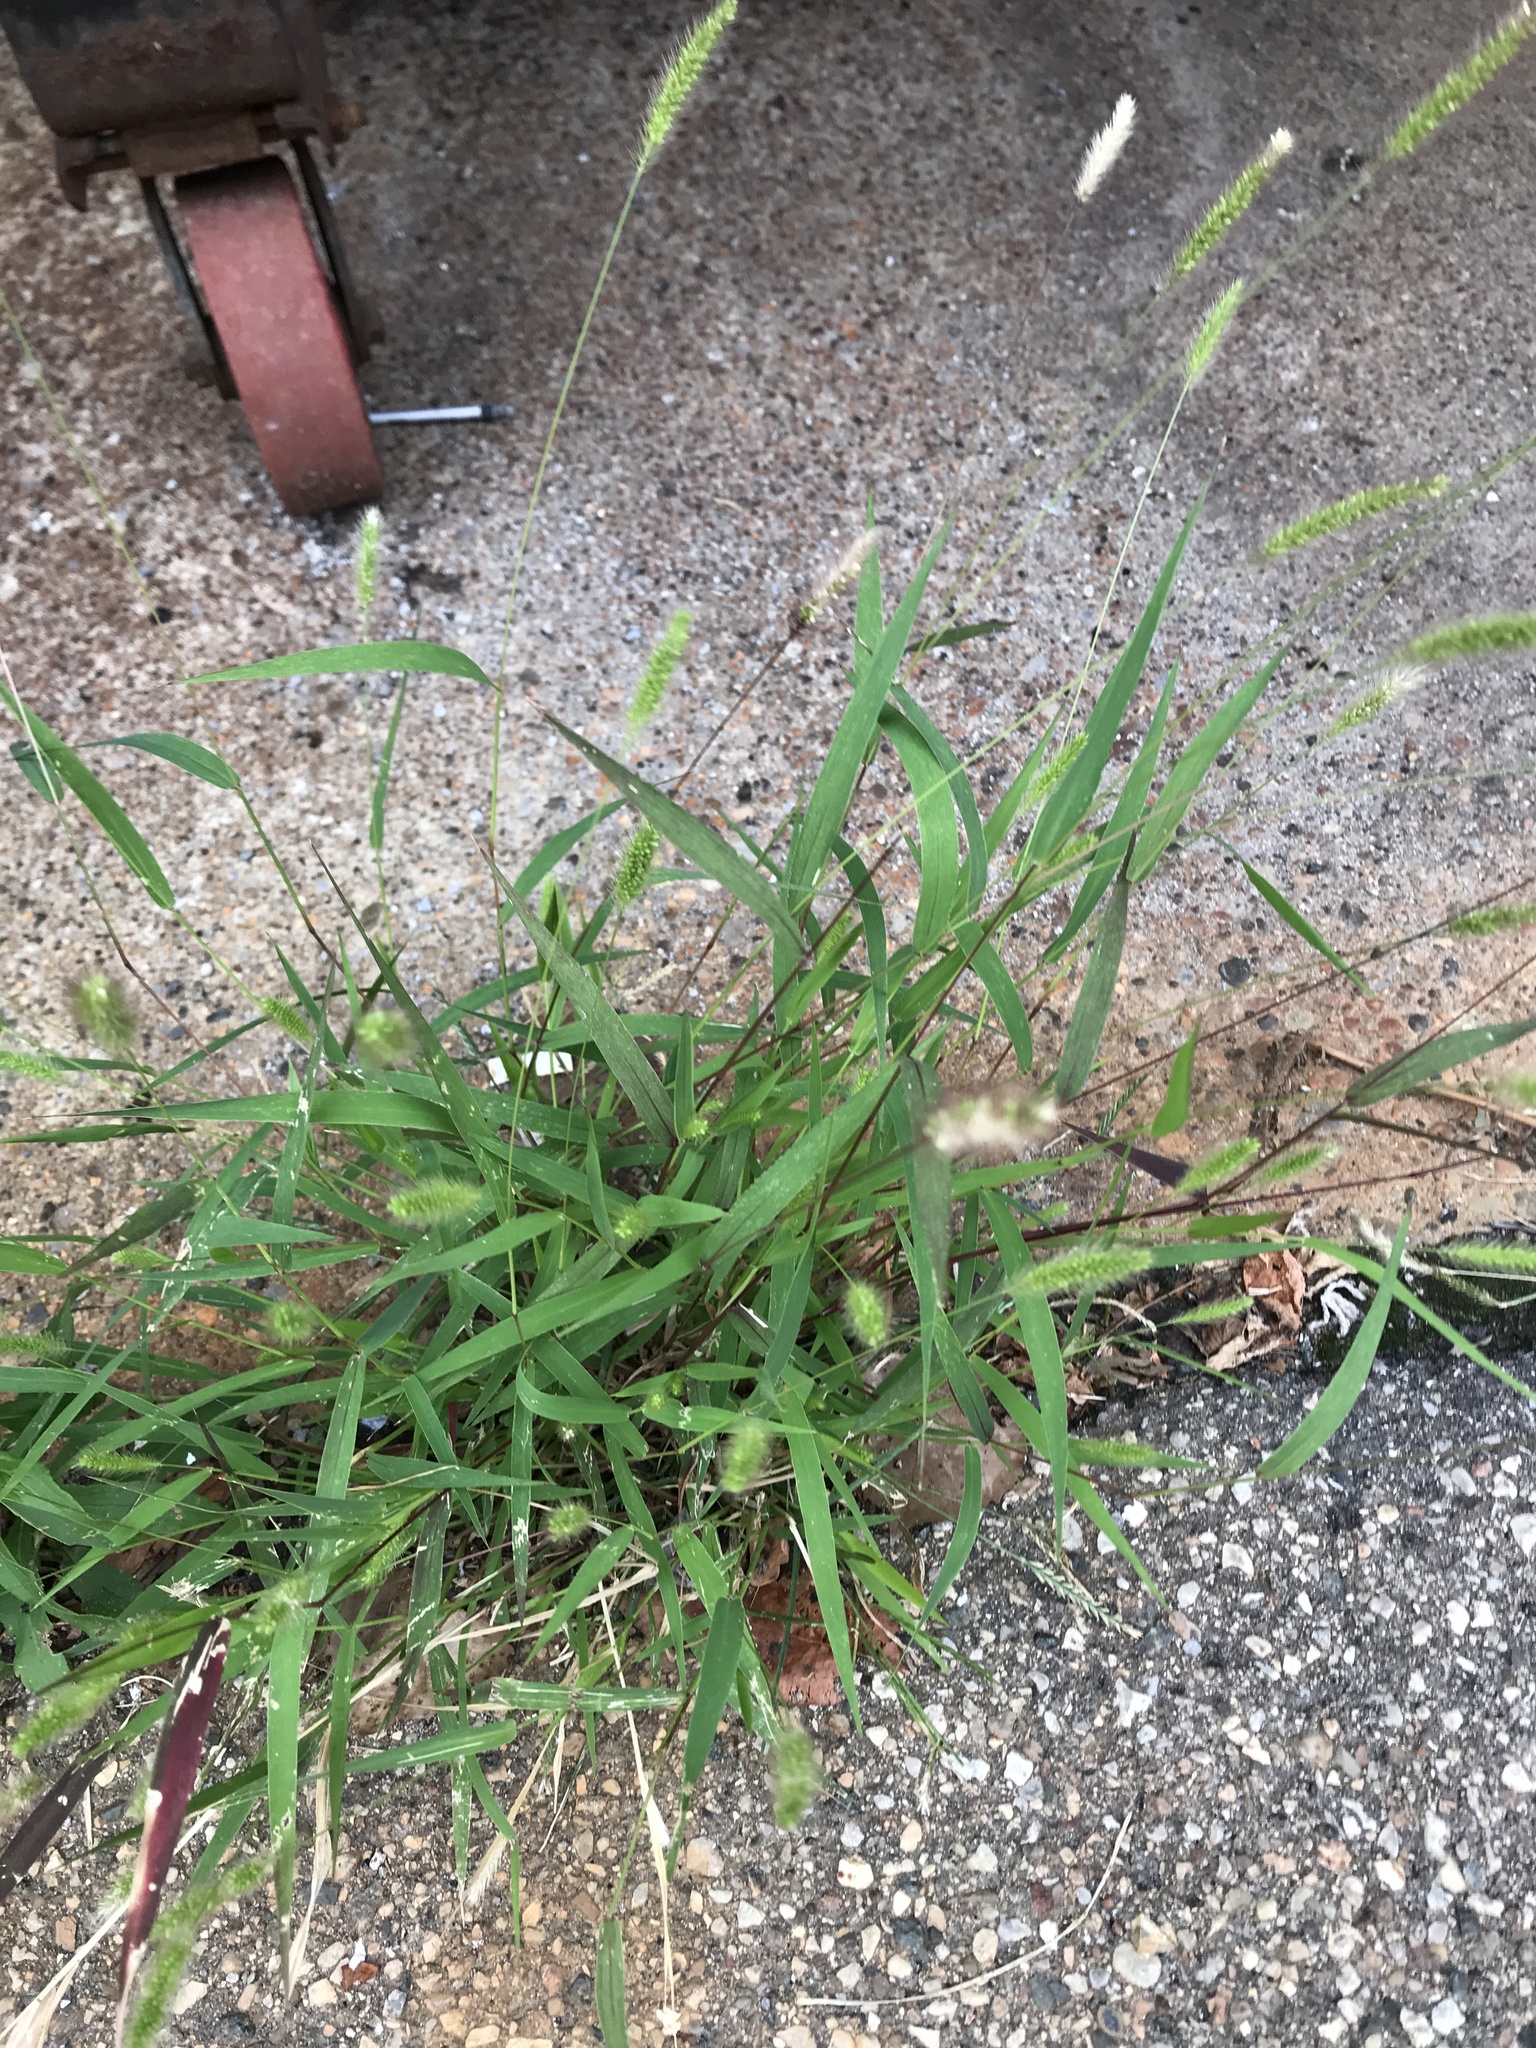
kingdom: Plantae
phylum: Tracheophyta
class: Liliopsida
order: Poales
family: Poaceae
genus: Setaria
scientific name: Setaria viridis
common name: Green bristlegrass
